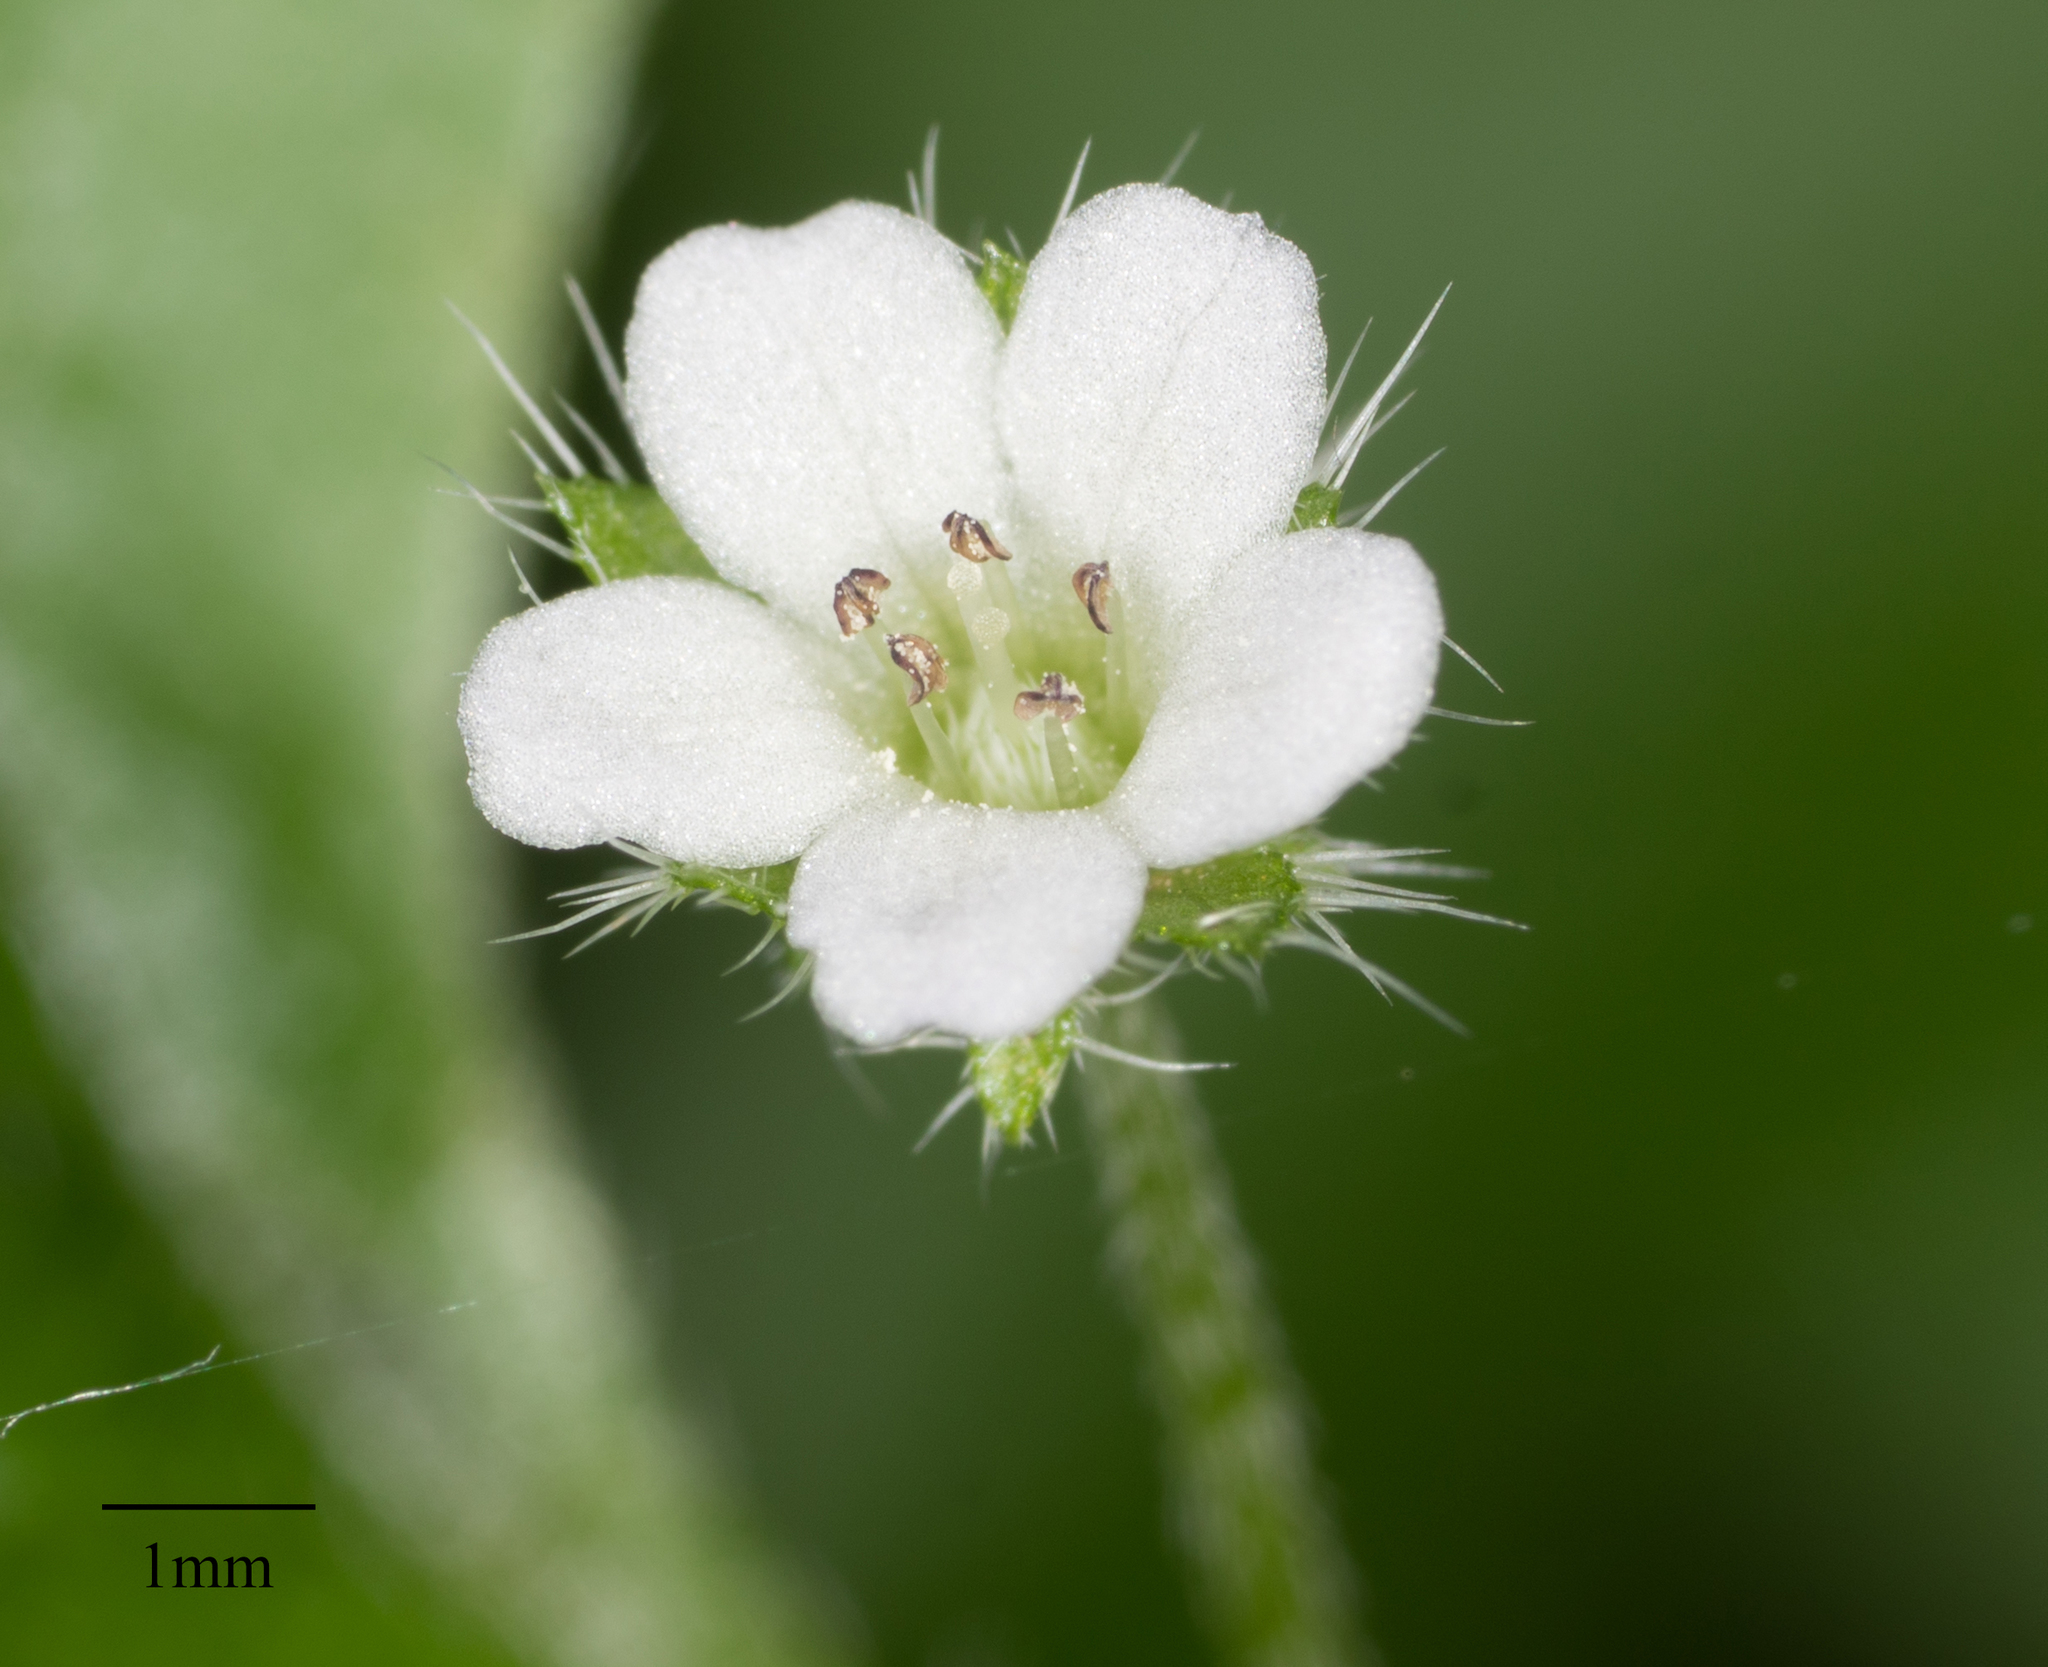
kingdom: Plantae
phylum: Tracheophyta
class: Magnoliopsida
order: Boraginales
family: Hydrophyllaceae
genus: Nemophila
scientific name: Nemophila parviflora
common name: Small-flowered baby-blue-eyes
